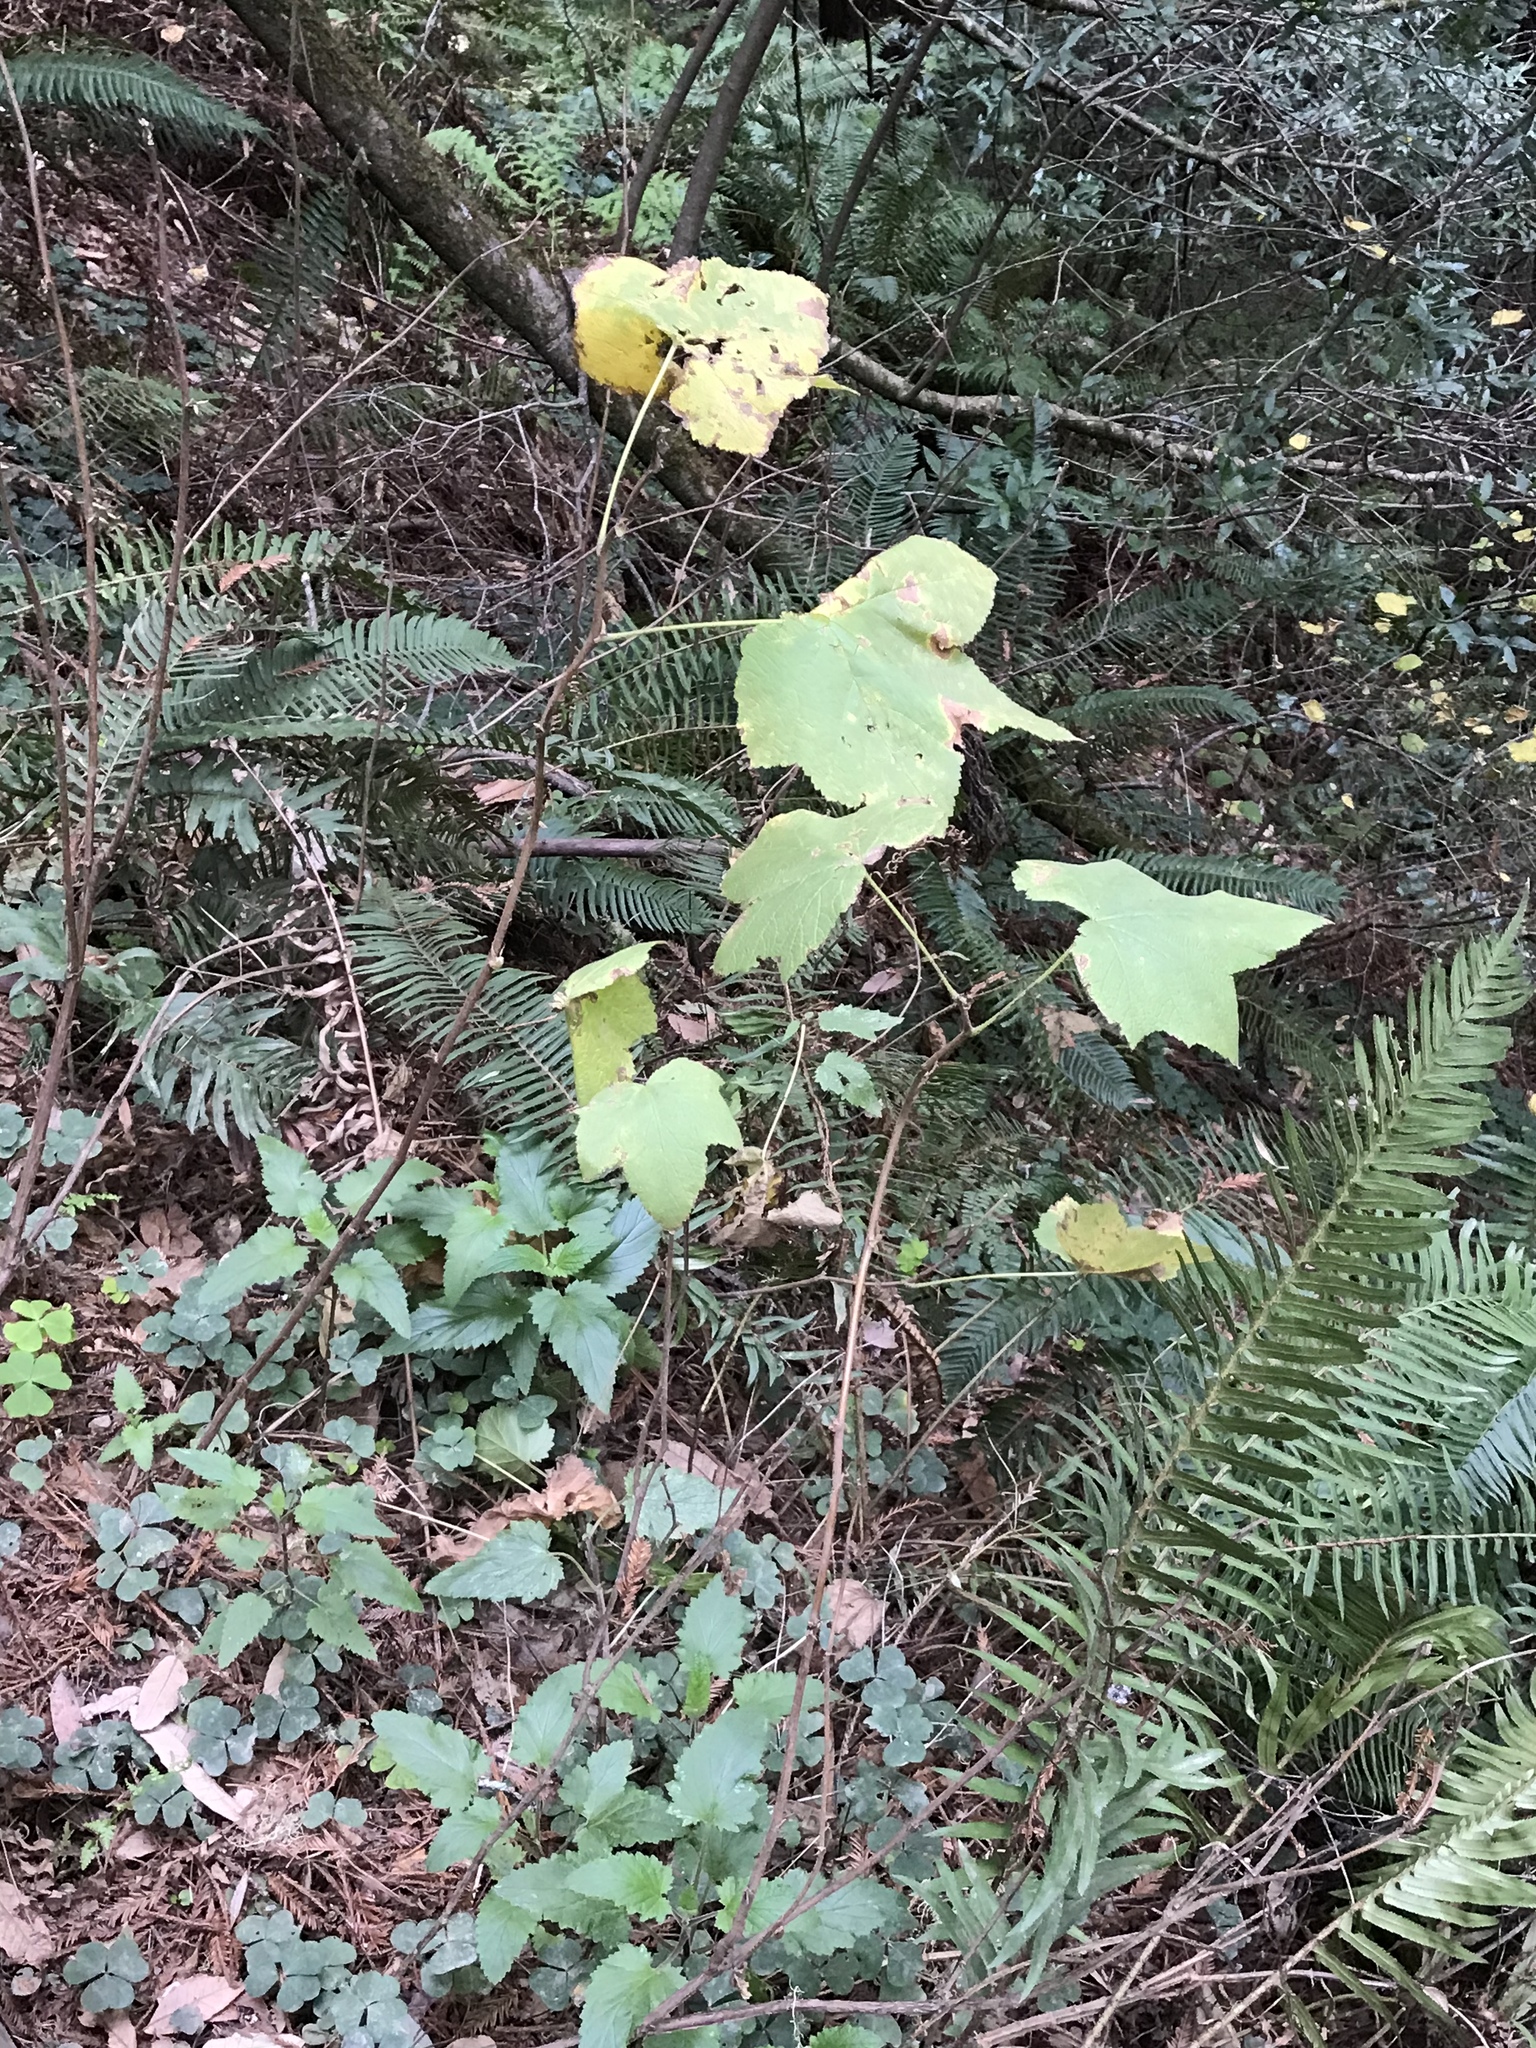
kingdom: Plantae
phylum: Tracheophyta
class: Magnoliopsida
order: Rosales
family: Rosaceae
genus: Rubus
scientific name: Rubus parviflorus
